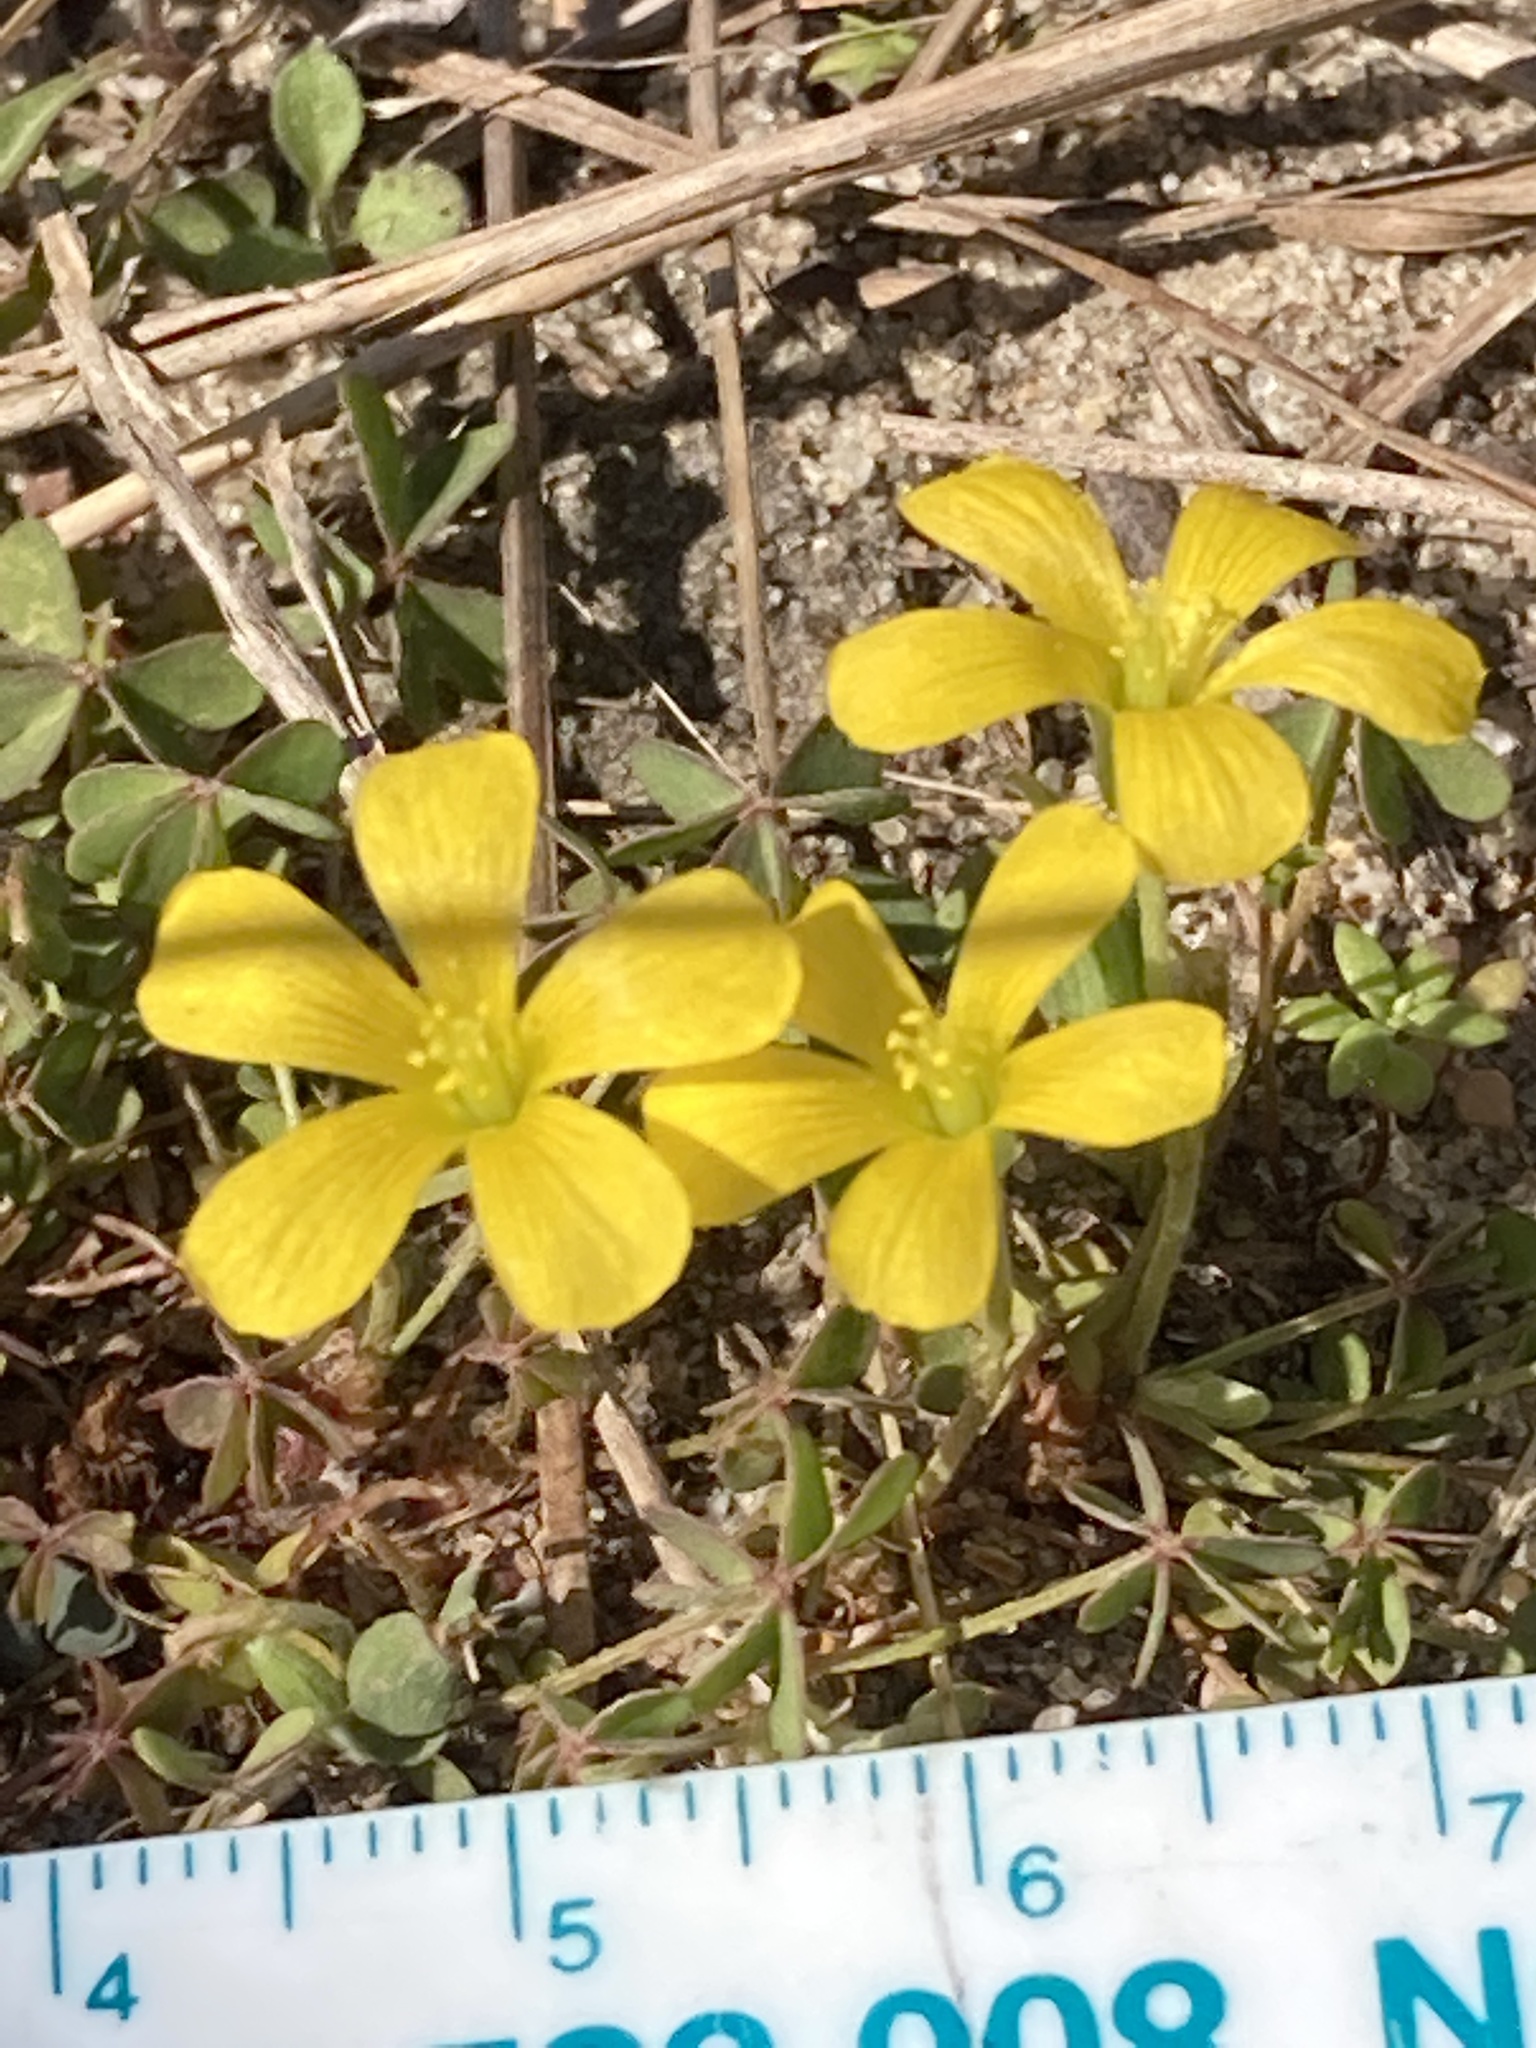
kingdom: Plantae
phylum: Tracheophyta
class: Magnoliopsida
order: Oxalidales
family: Oxalidaceae
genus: Oxalis
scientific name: Oxalis corniculata
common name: Procumbent yellow-sorrel
